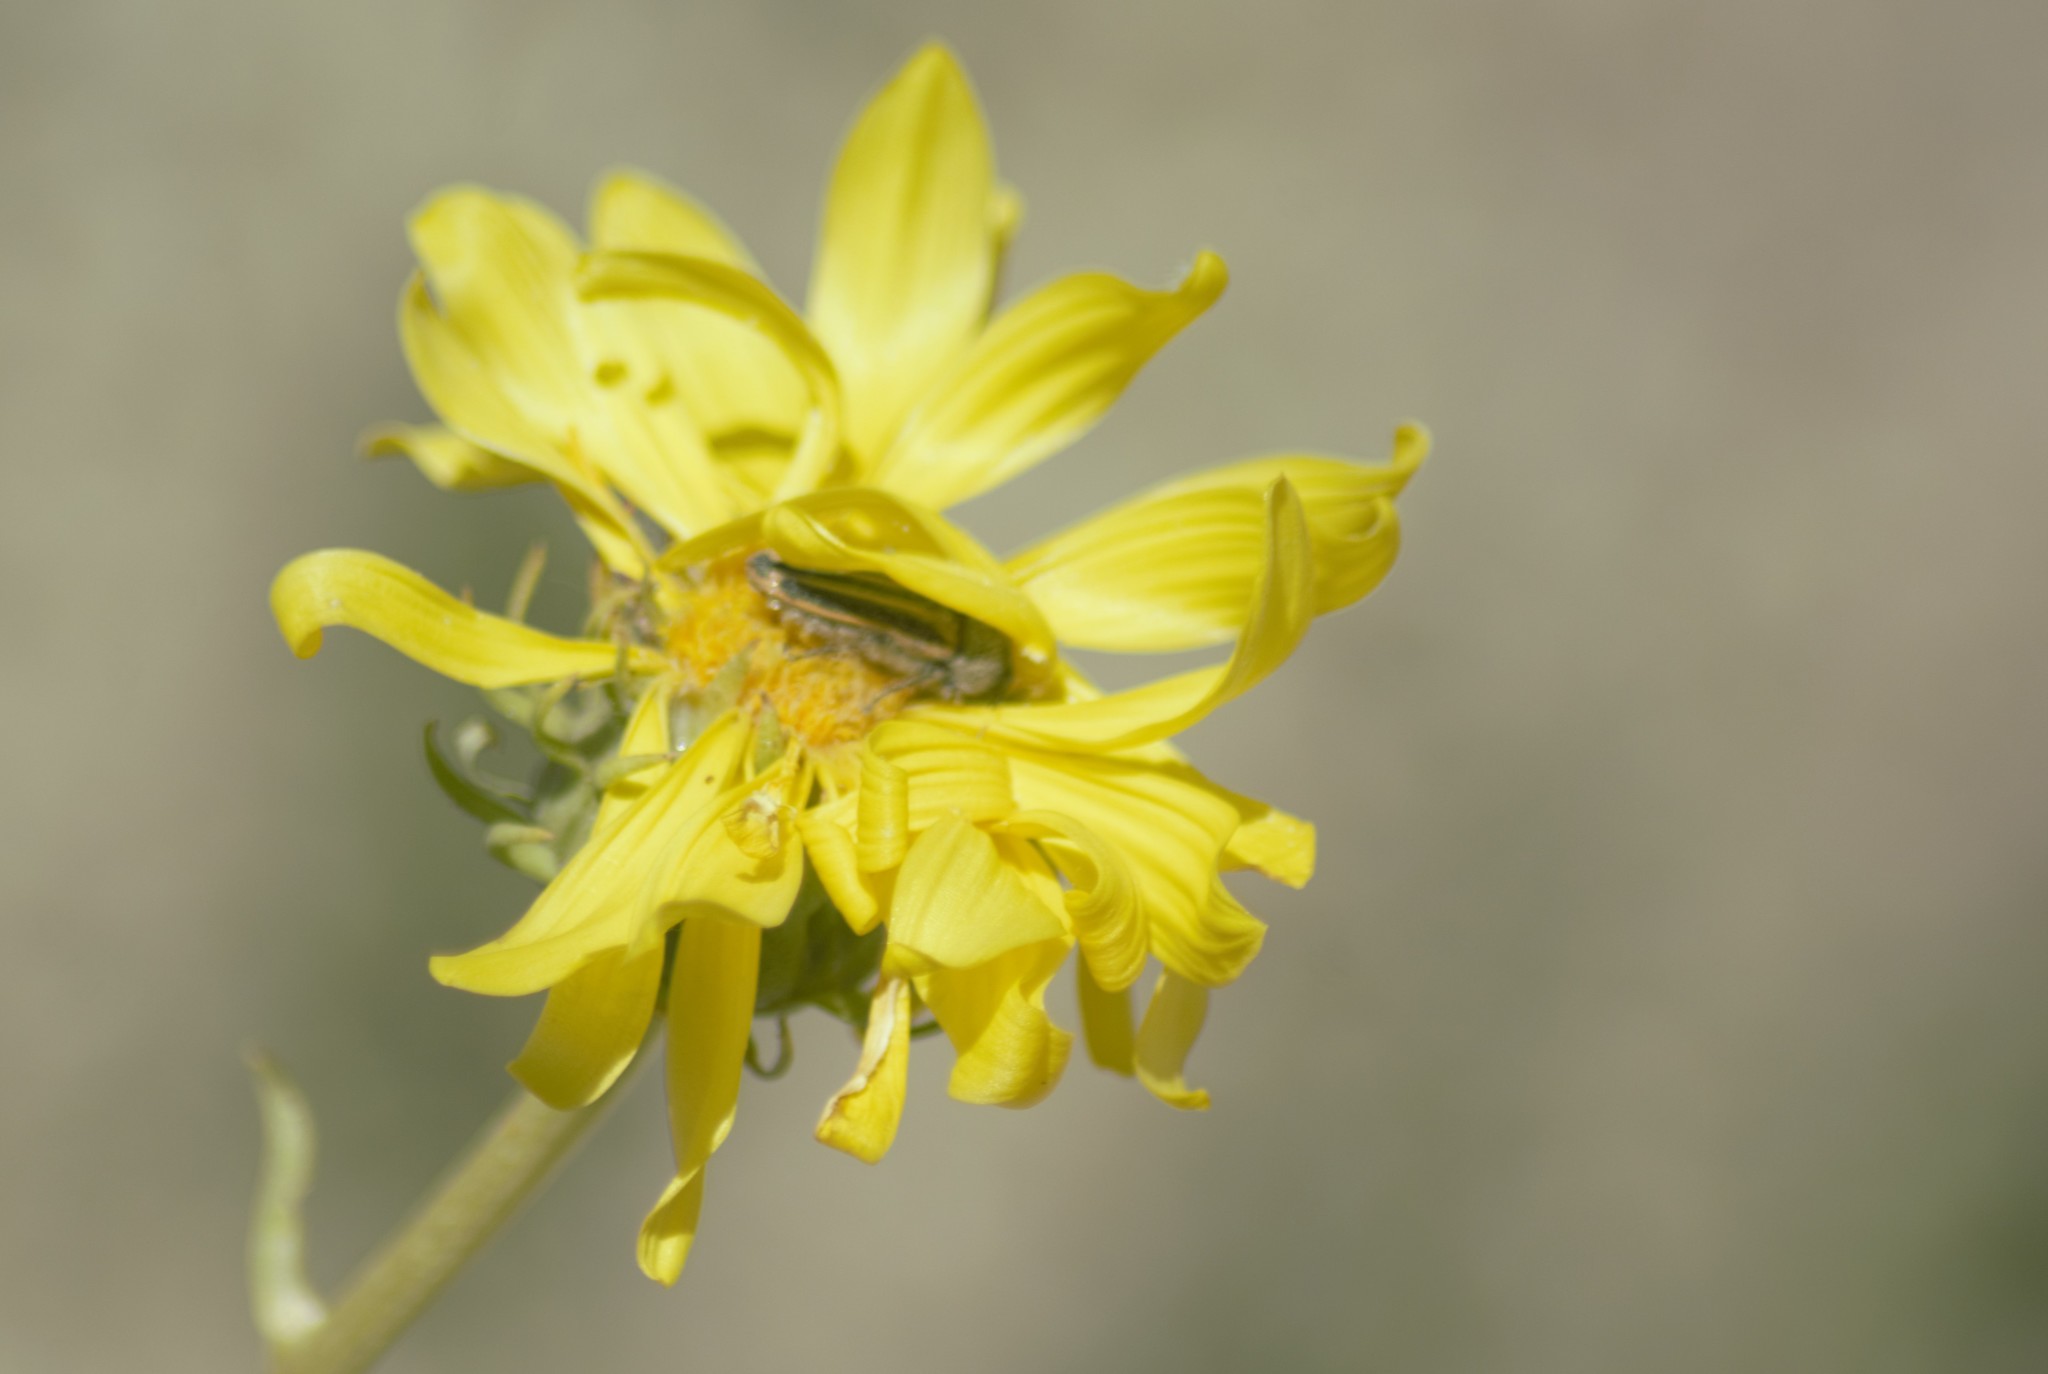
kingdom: Animalia
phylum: Arthropoda
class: Insecta
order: Coleoptera
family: Buprestidae
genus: Lasionota
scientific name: Lasionota alternans
